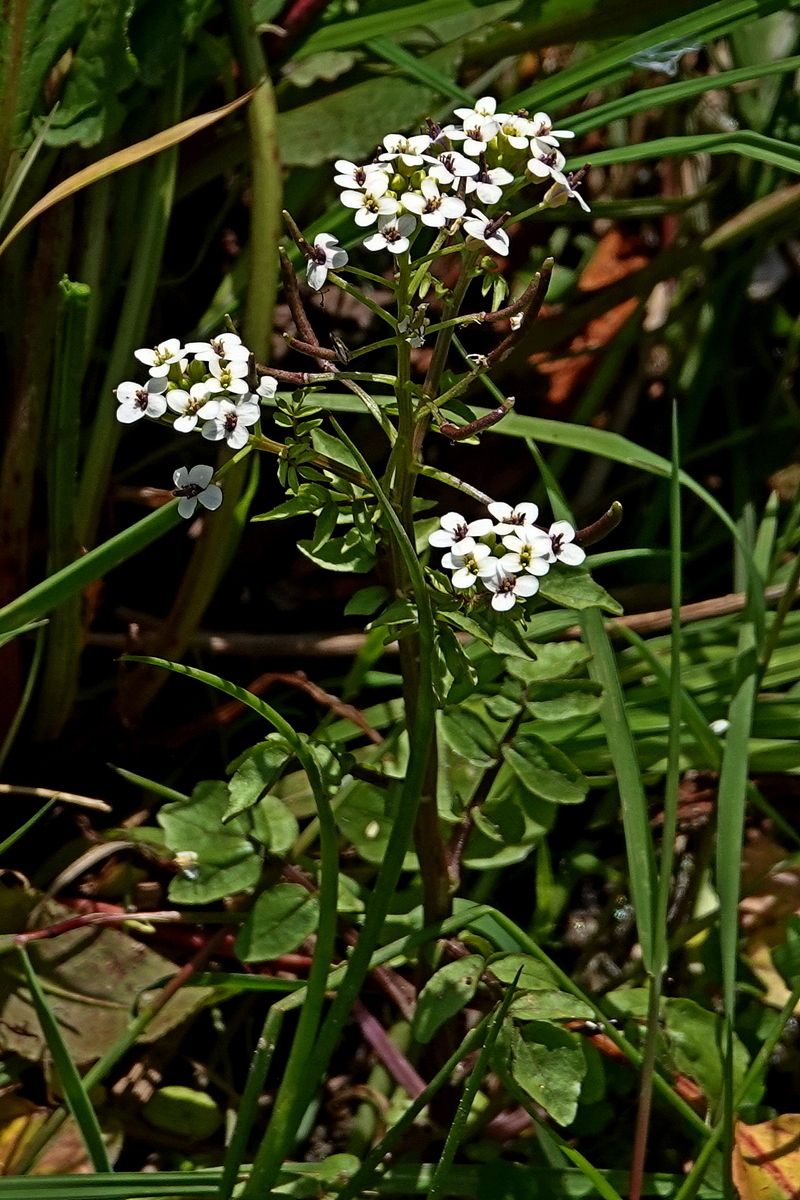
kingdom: Plantae
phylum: Tracheophyta
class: Magnoliopsida
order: Brassicales
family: Brassicaceae
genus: Nasturtium
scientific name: Nasturtium officinale
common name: Watercress
